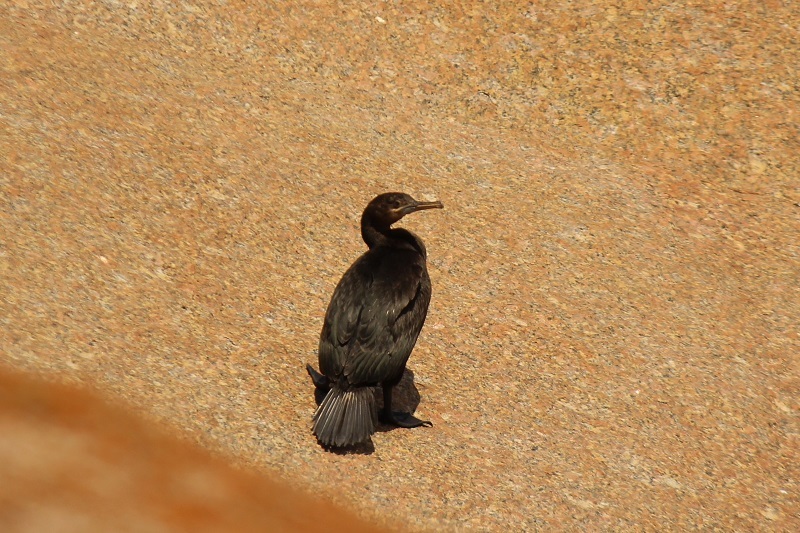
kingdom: Animalia
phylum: Chordata
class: Aves
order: Suliformes
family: Phalacrocoracidae
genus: Phalacrocorax
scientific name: Phalacrocorax neglectus
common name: Bank cormorant
